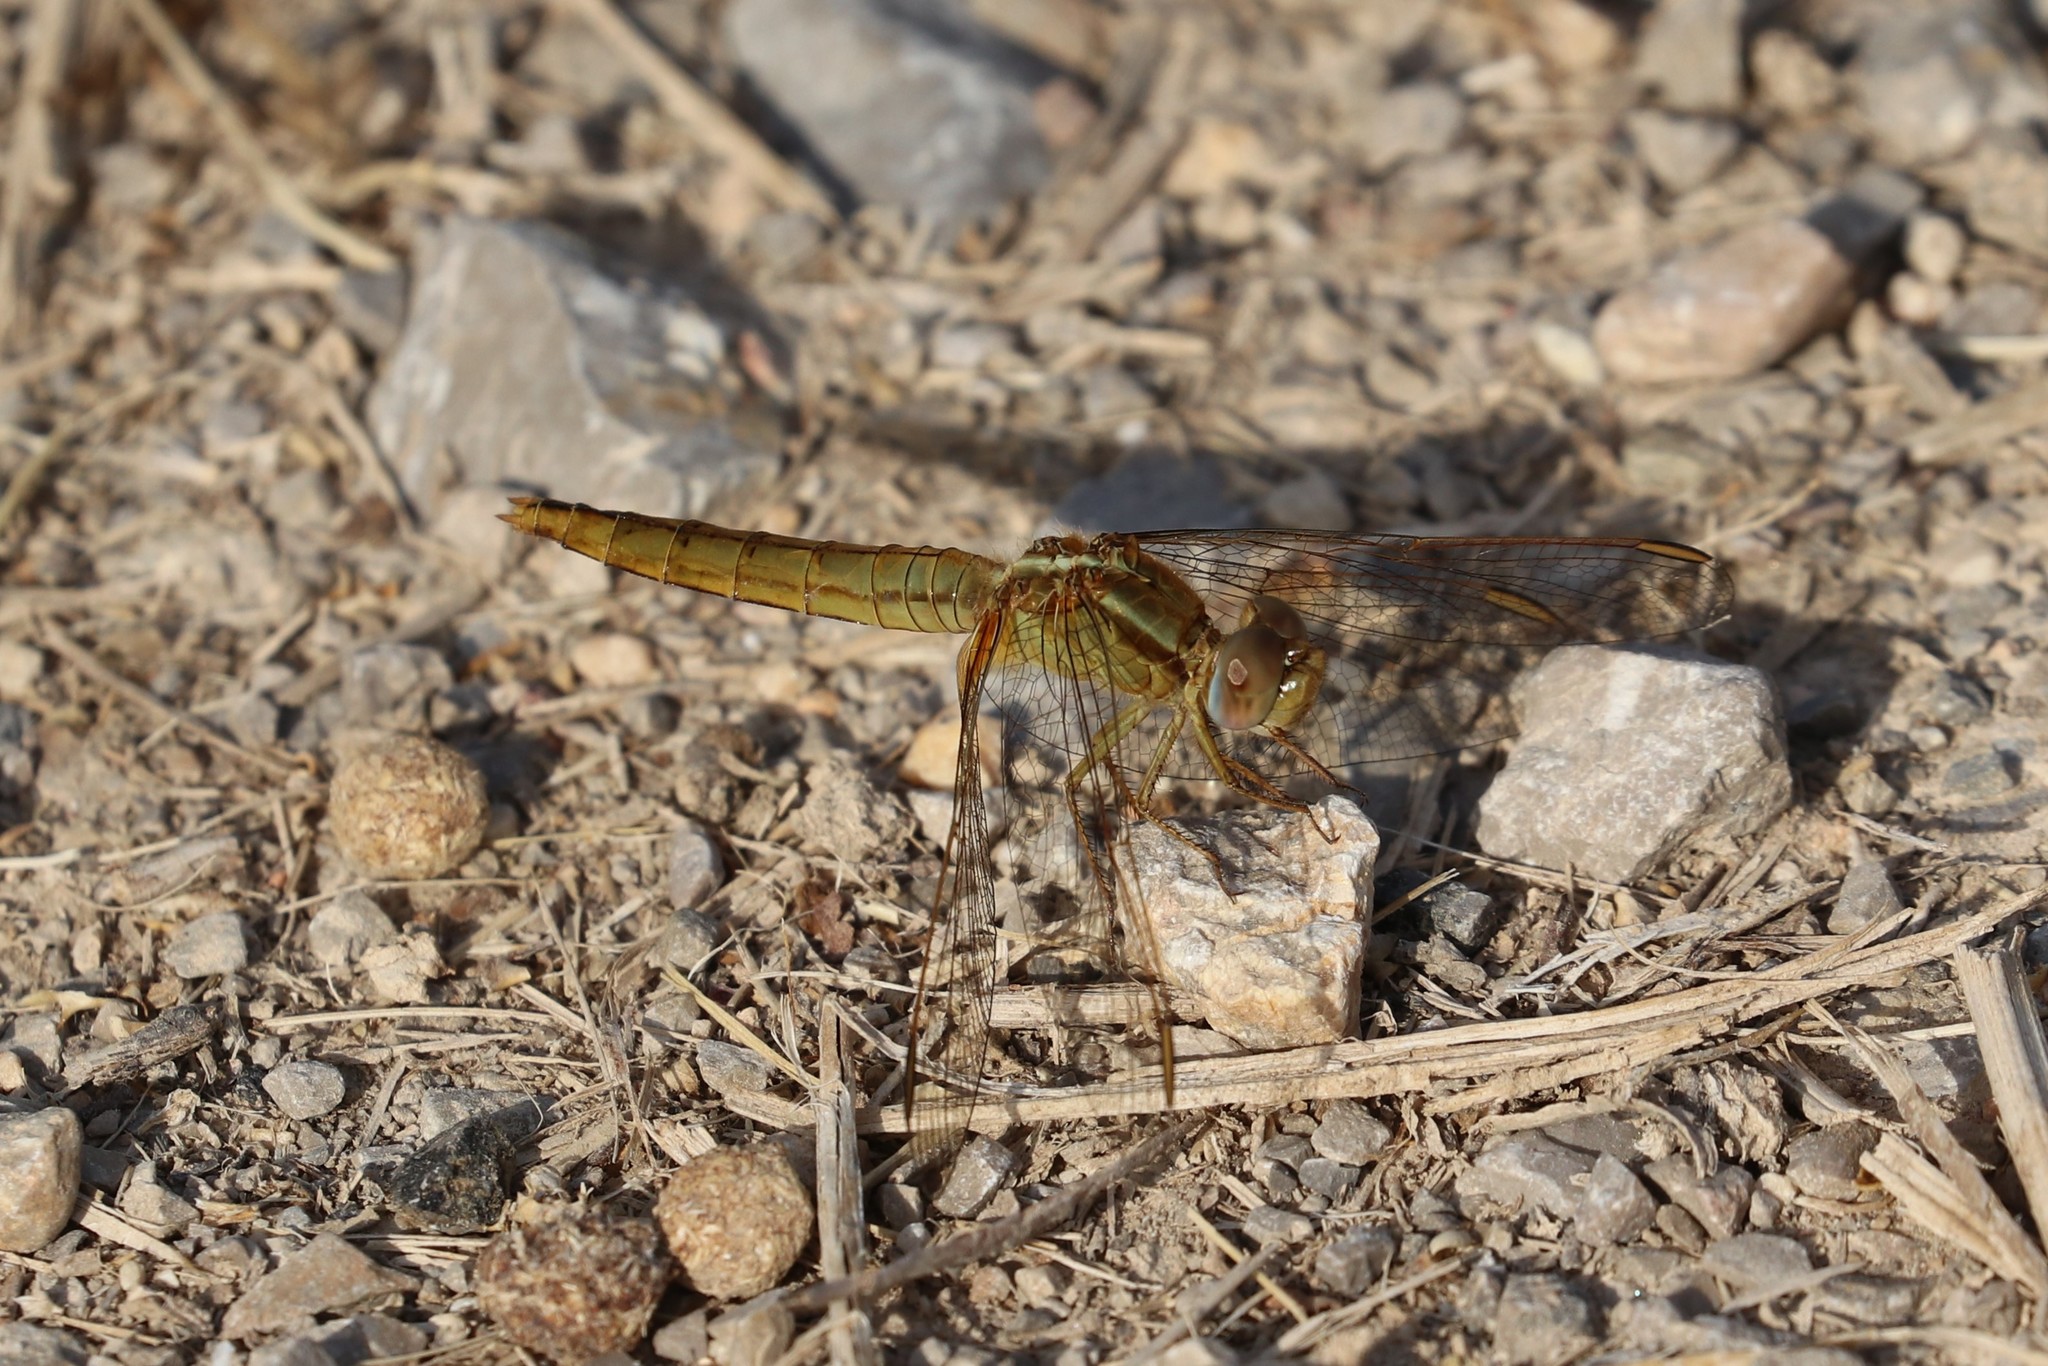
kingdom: Animalia
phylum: Arthropoda
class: Insecta
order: Odonata
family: Libellulidae
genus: Crocothemis
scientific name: Crocothemis erythraea
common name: Scarlet dragonfly
